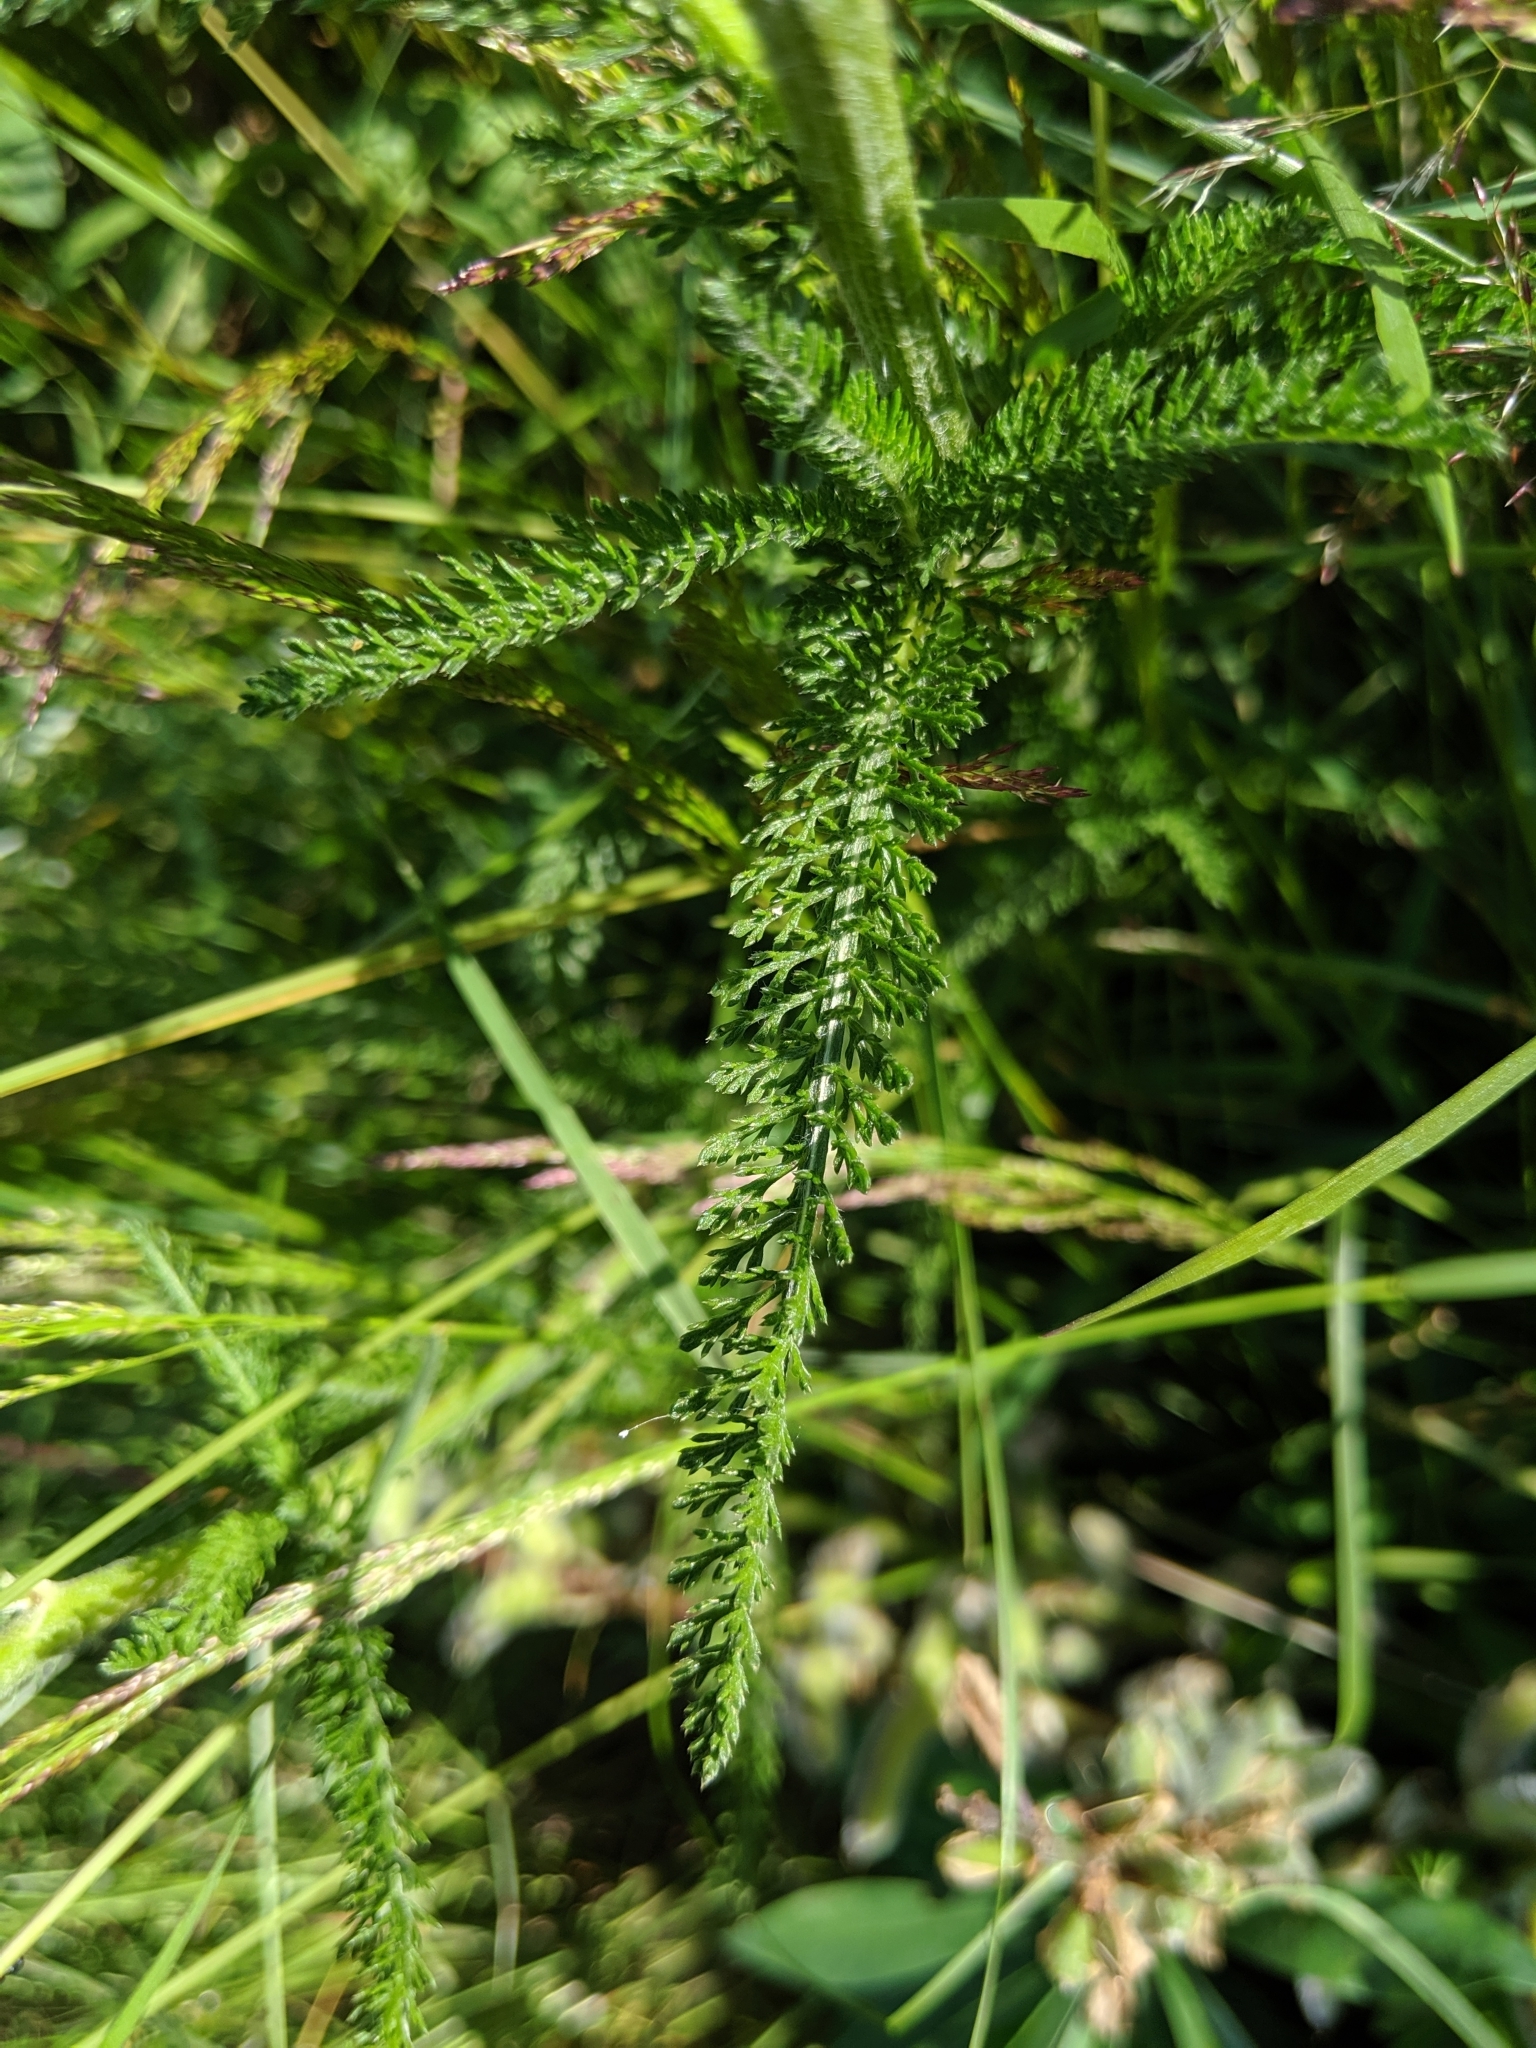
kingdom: Plantae
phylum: Tracheophyta
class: Magnoliopsida
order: Asterales
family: Asteraceae
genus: Achillea
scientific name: Achillea millefolium
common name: Yarrow
